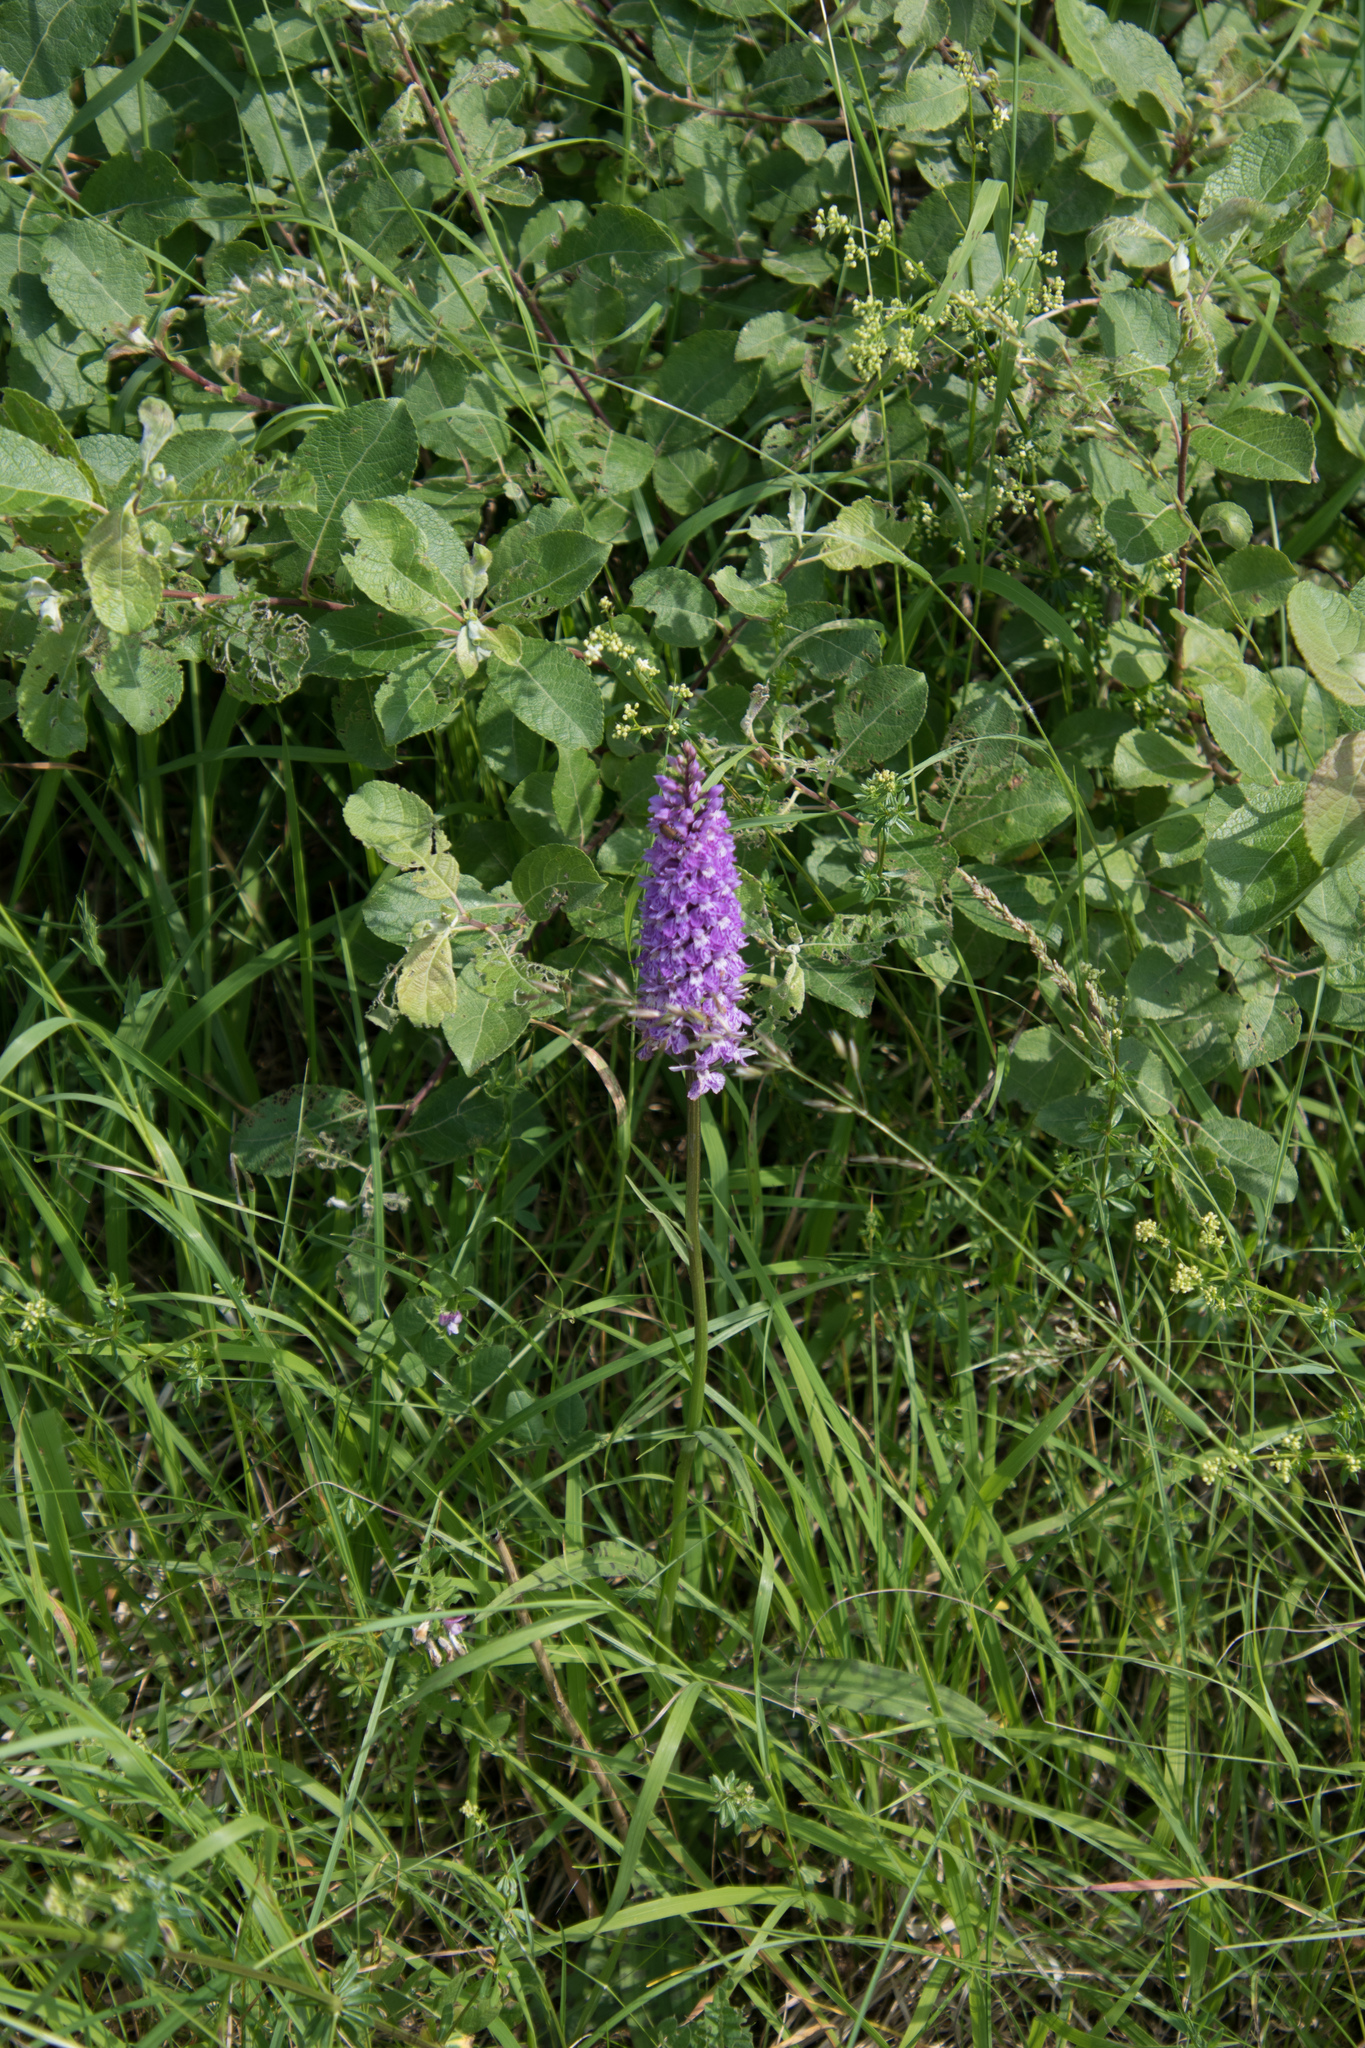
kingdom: Plantae
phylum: Tracheophyta
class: Liliopsida
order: Asparagales
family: Orchidaceae
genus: Dactylorhiza
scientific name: Dactylorhiza maculata
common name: Heath spotted-orchid
